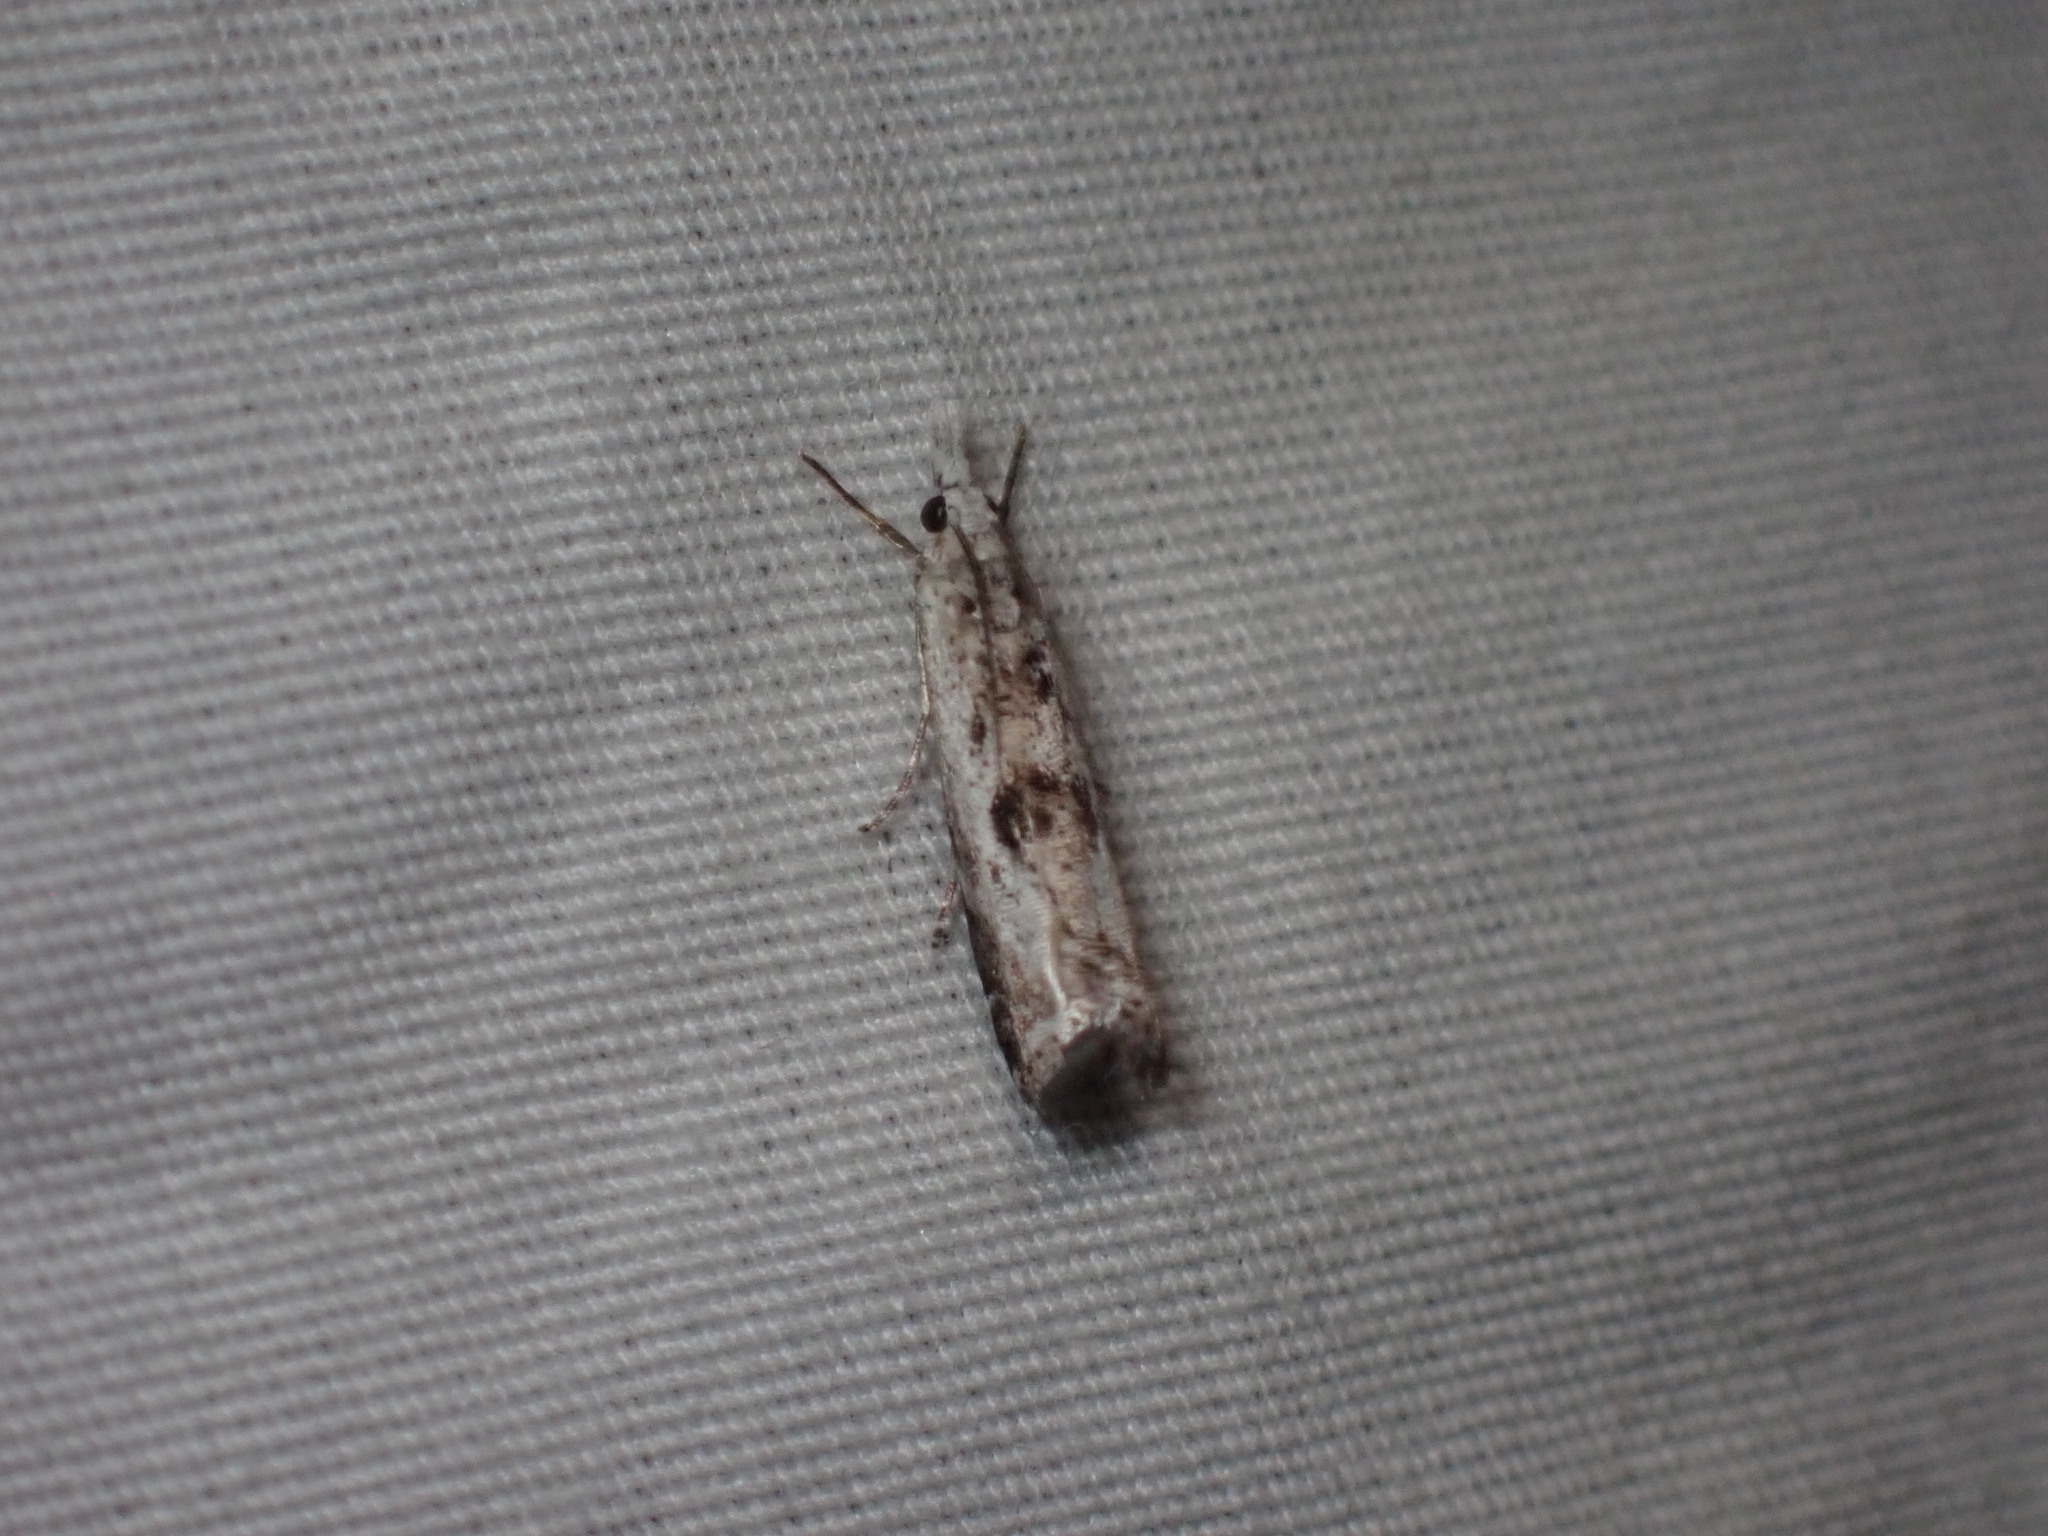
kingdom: Animalia
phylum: Arthropoda
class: Insecta
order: Lepidoptera
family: Crambidae
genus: Microcrambus
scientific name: Microcrambus immunellus
